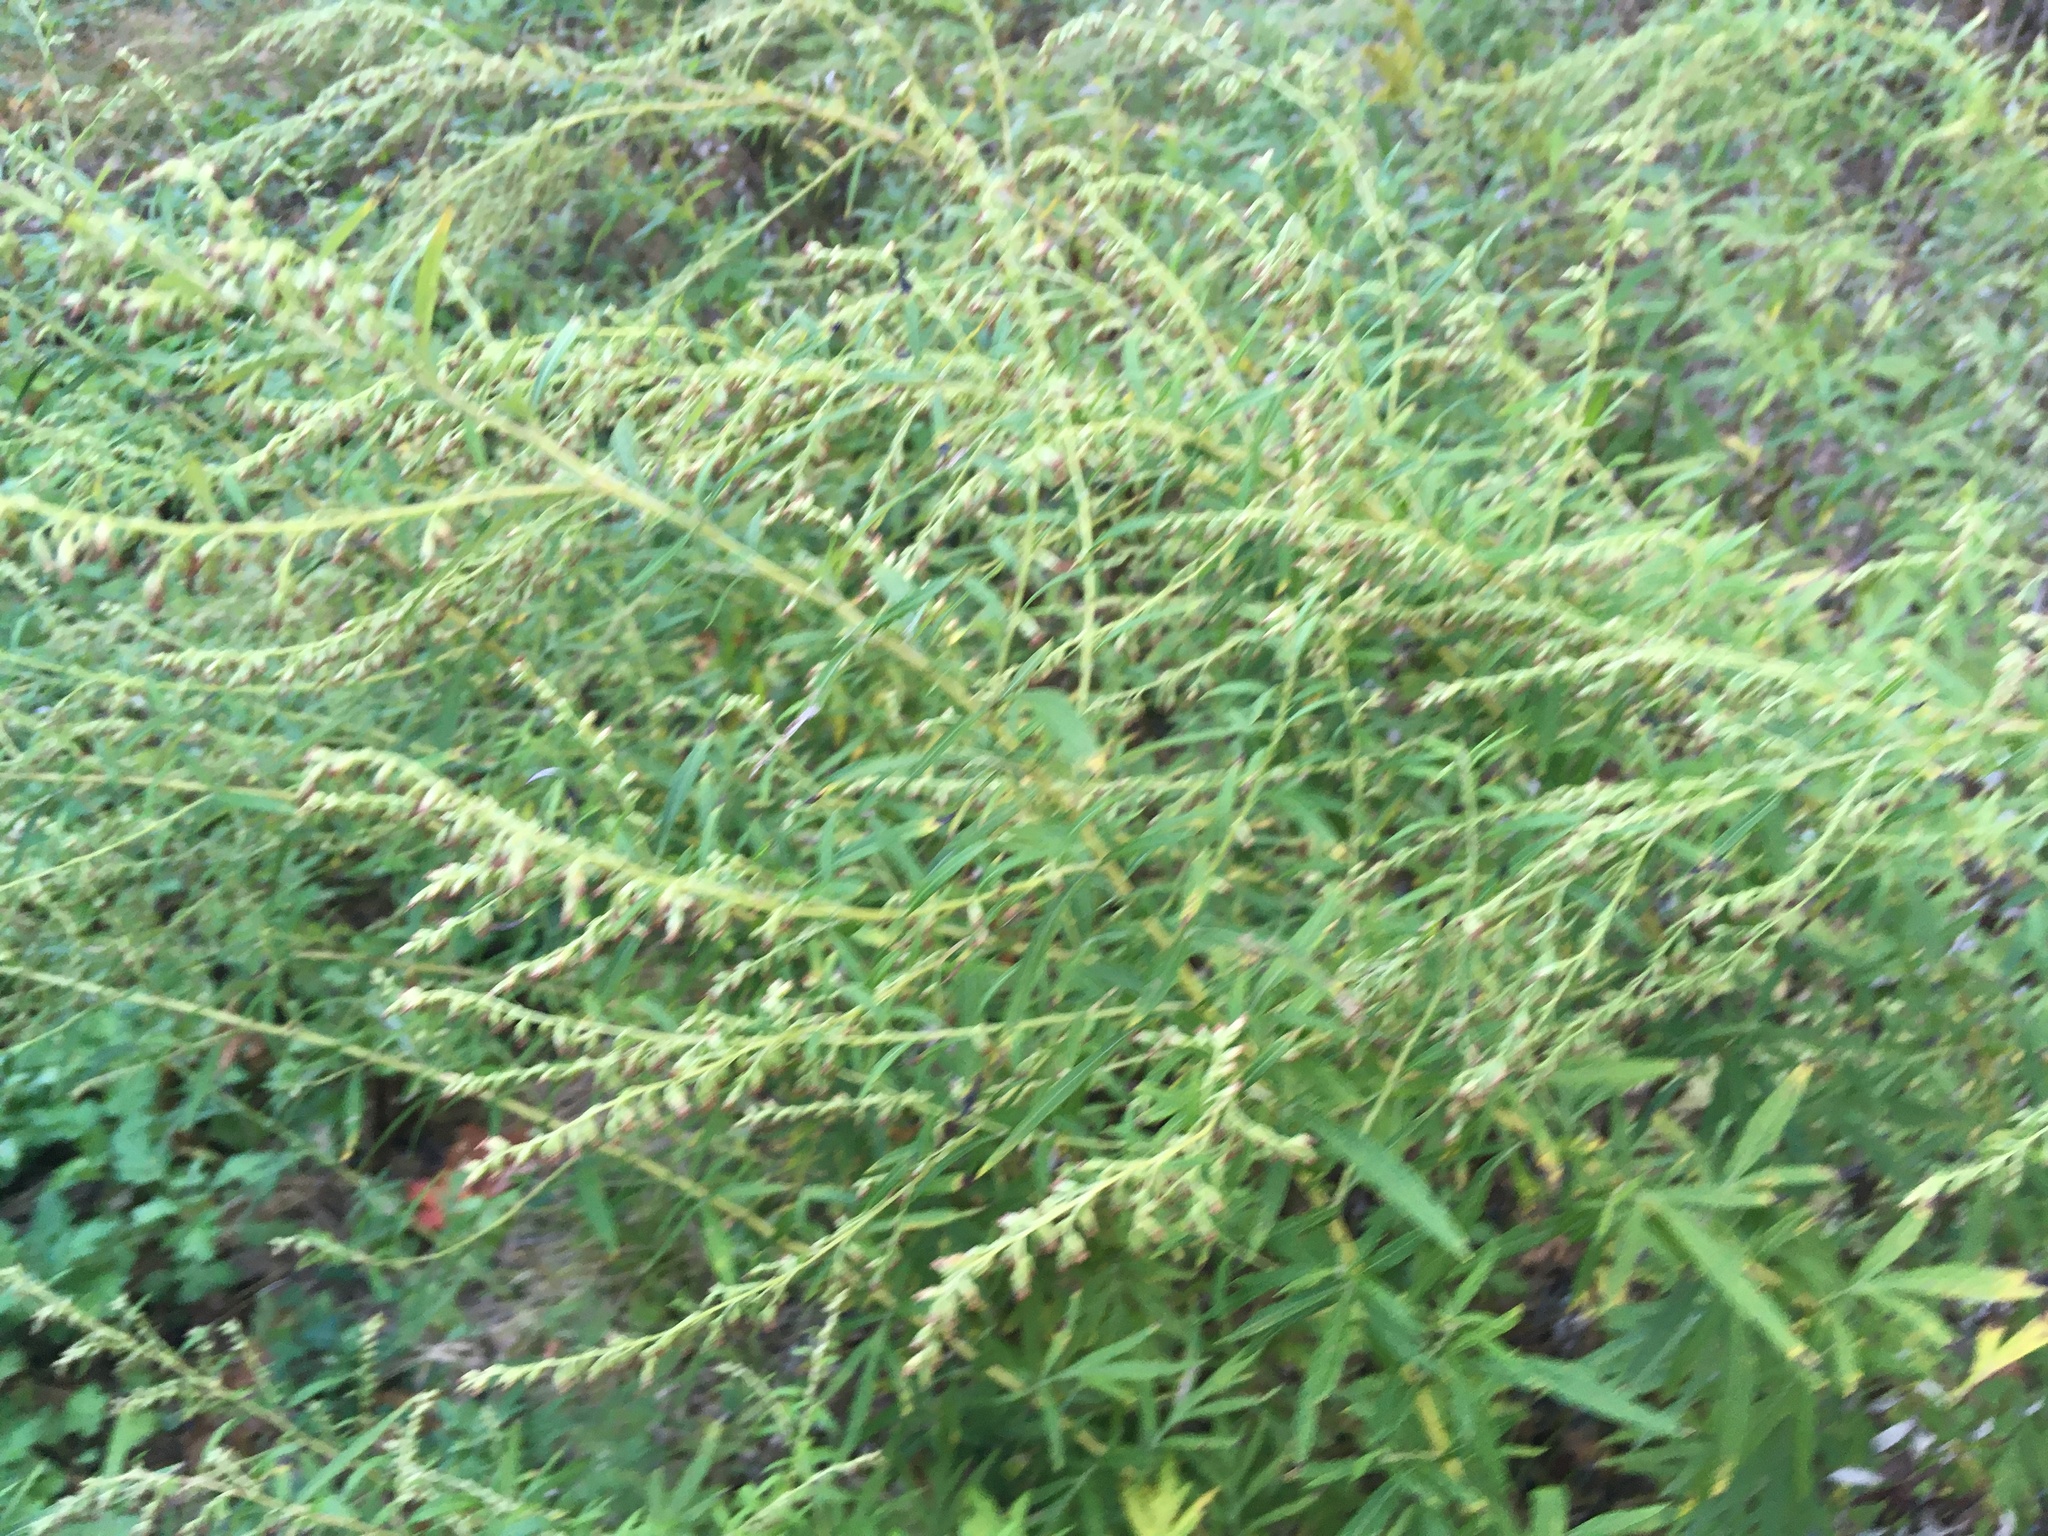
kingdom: Plantae
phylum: Tracheophyta
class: Magnoliopsida
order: Asterales
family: Asteraceae
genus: Artemisia
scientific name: Artemisia vulgaris
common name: Mugwort
